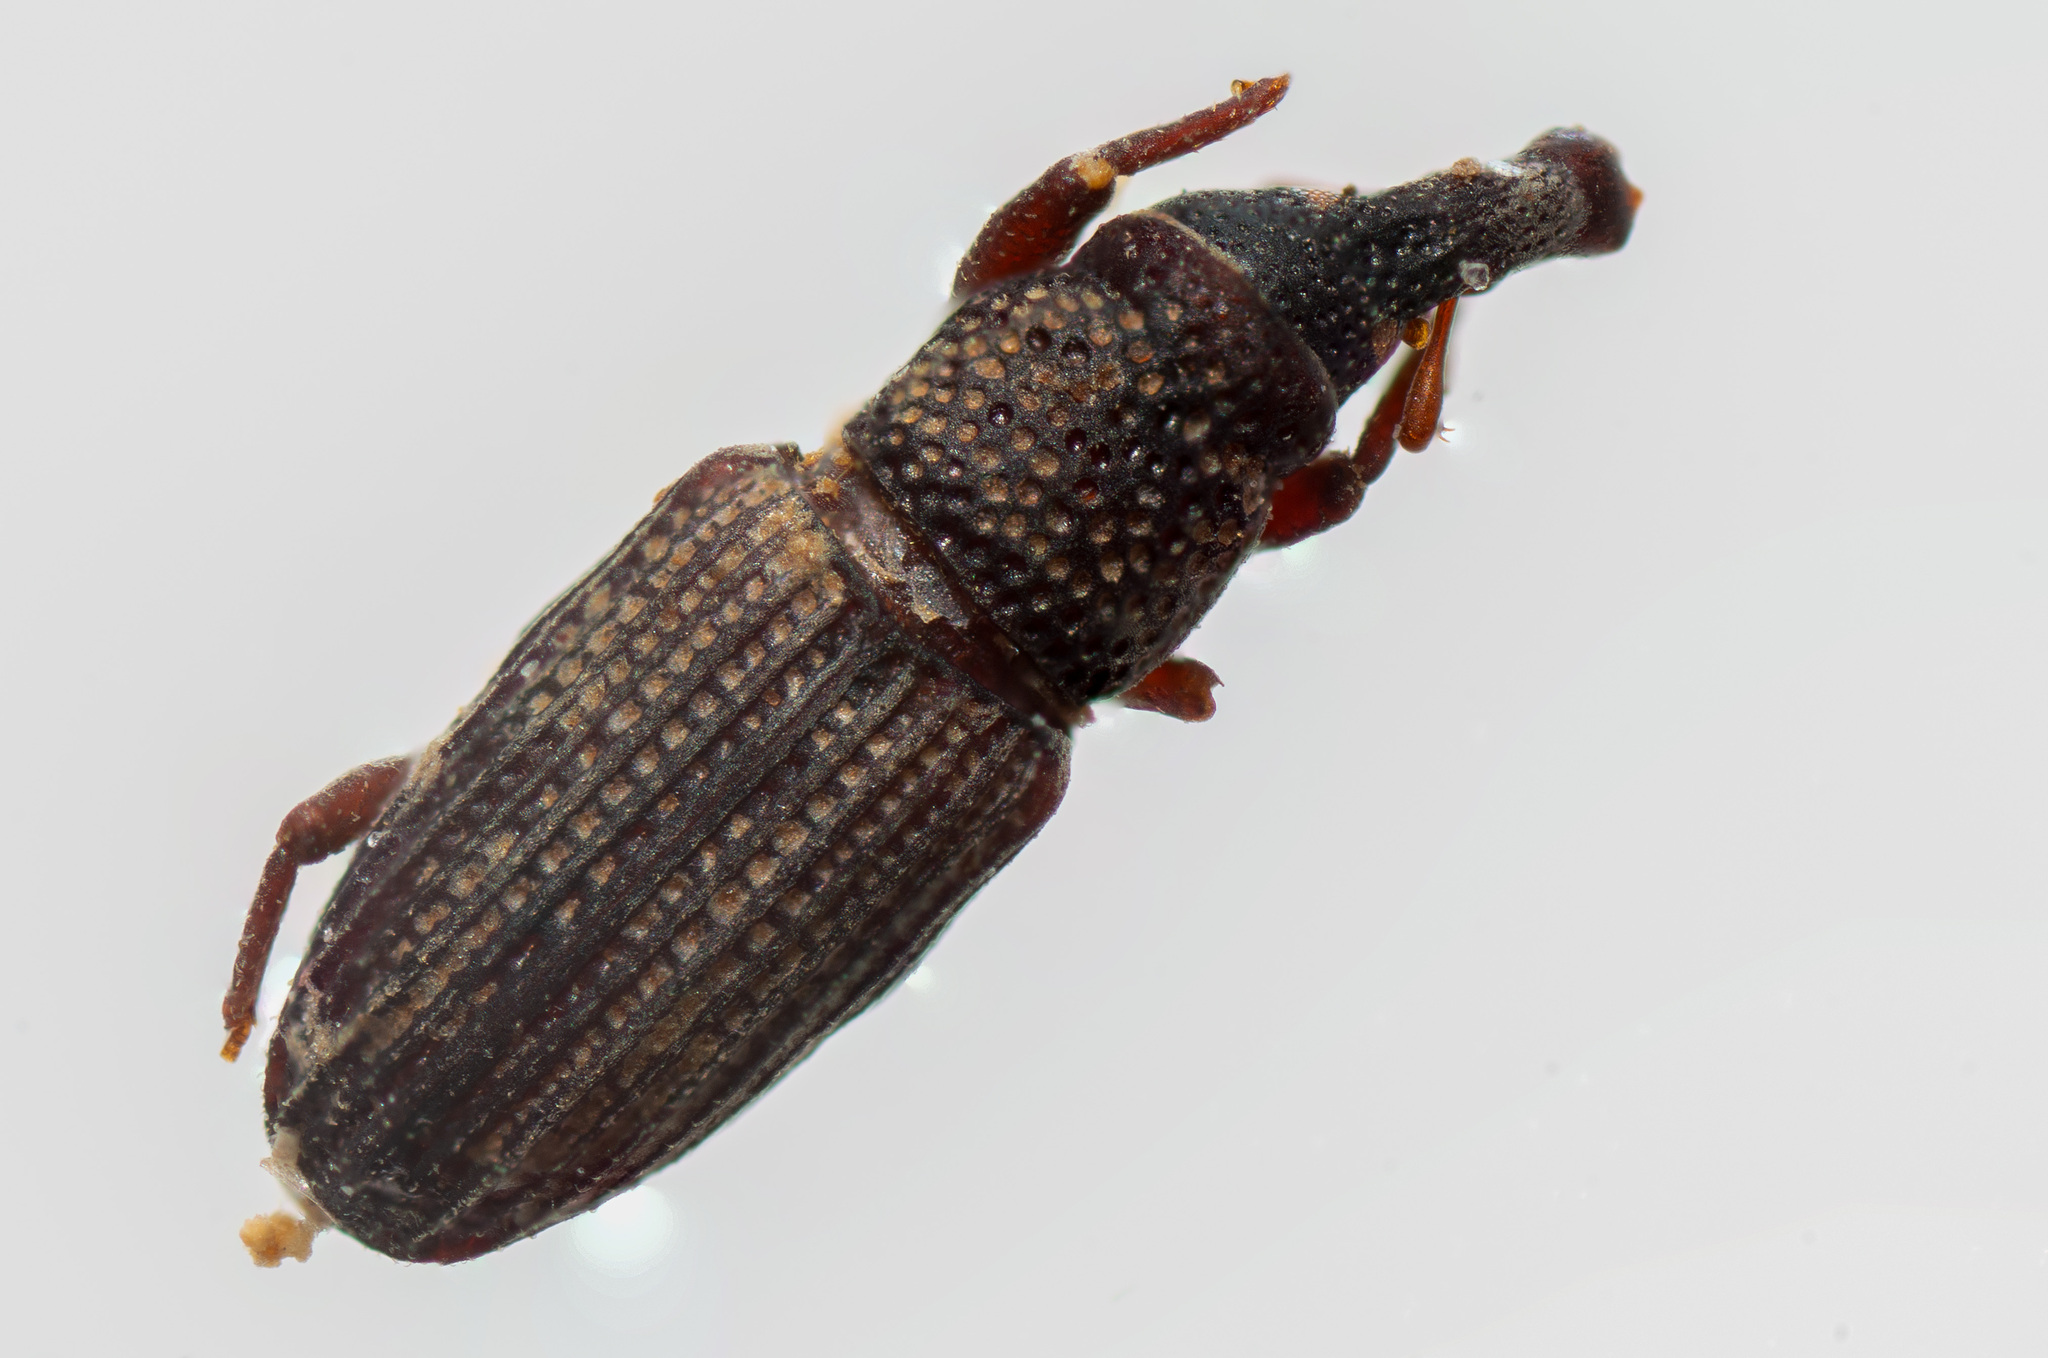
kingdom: Animalia
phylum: Arthropoda
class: Insecta
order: Coleoptera
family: Dryophthoridae
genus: Dryophthorus
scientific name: Dryophthorus americanus
